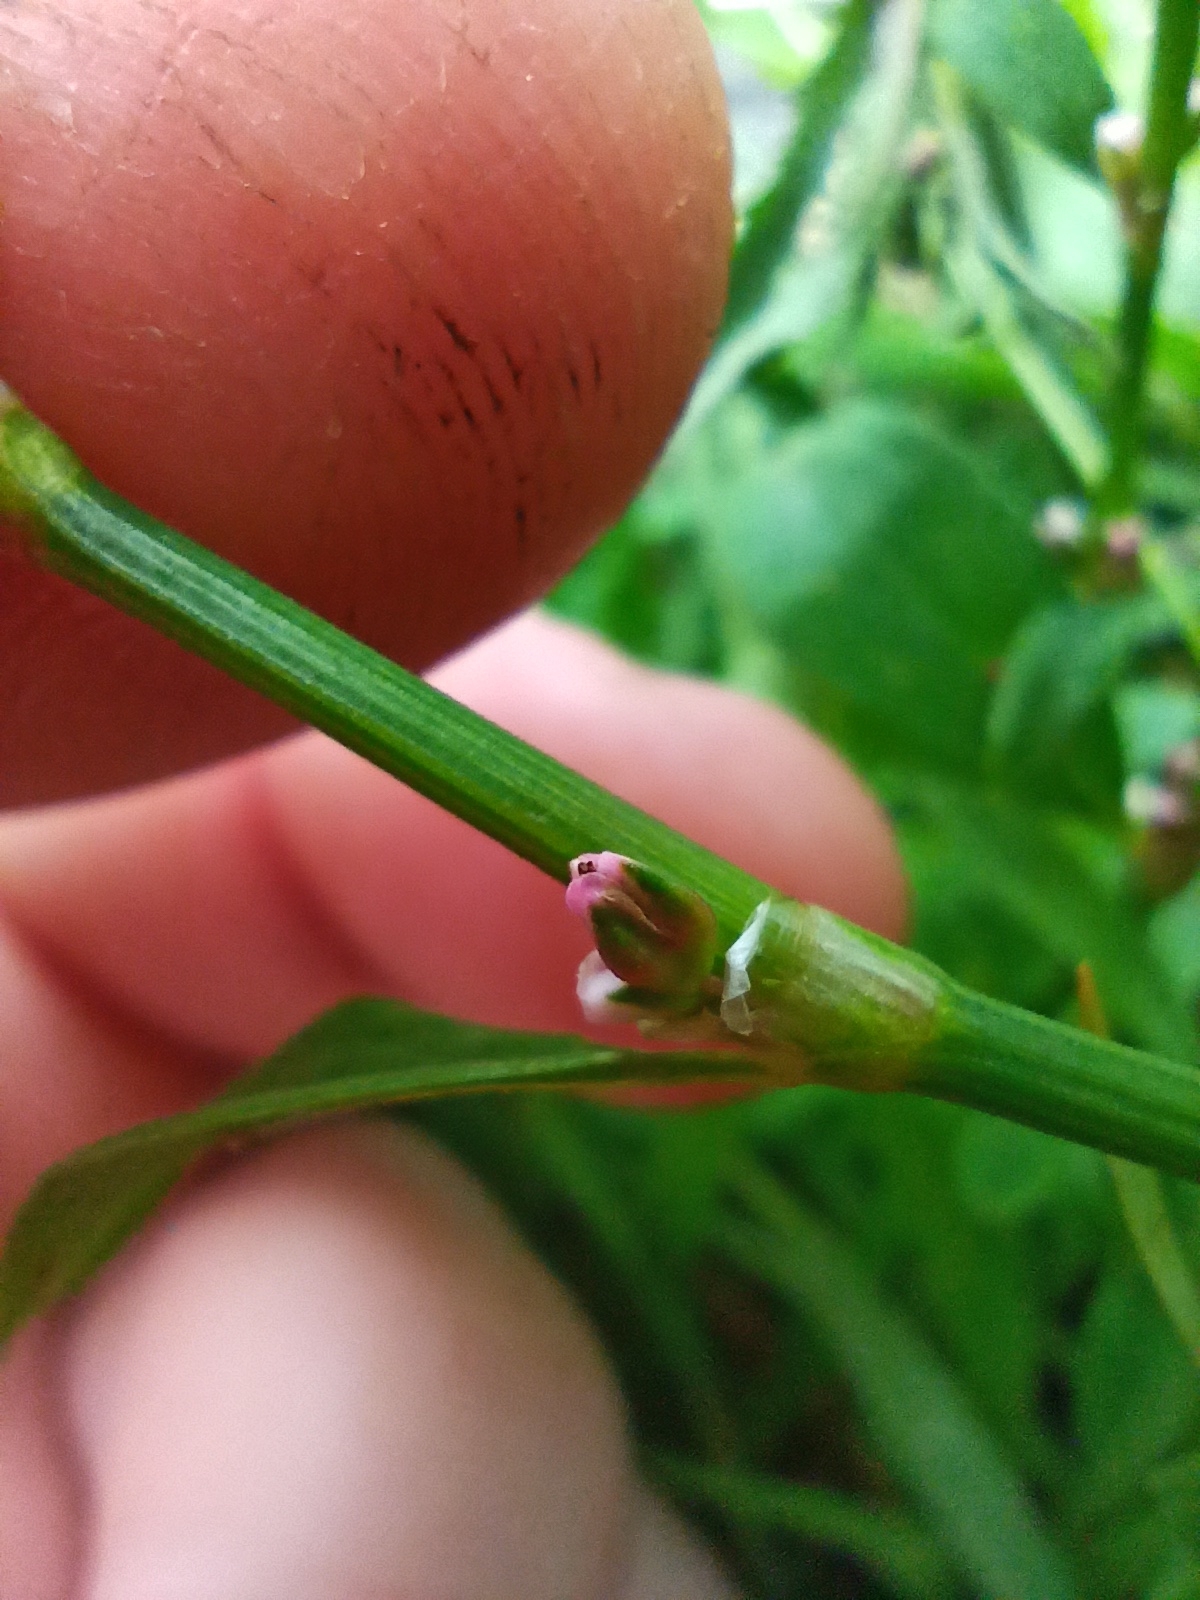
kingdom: Plantae
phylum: Tracheophyta
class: Magnoliopsida
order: Caryophyllales
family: Polygonaceae
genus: Polygonum
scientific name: Polygonum aviculare
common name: Prostrate knotweed
